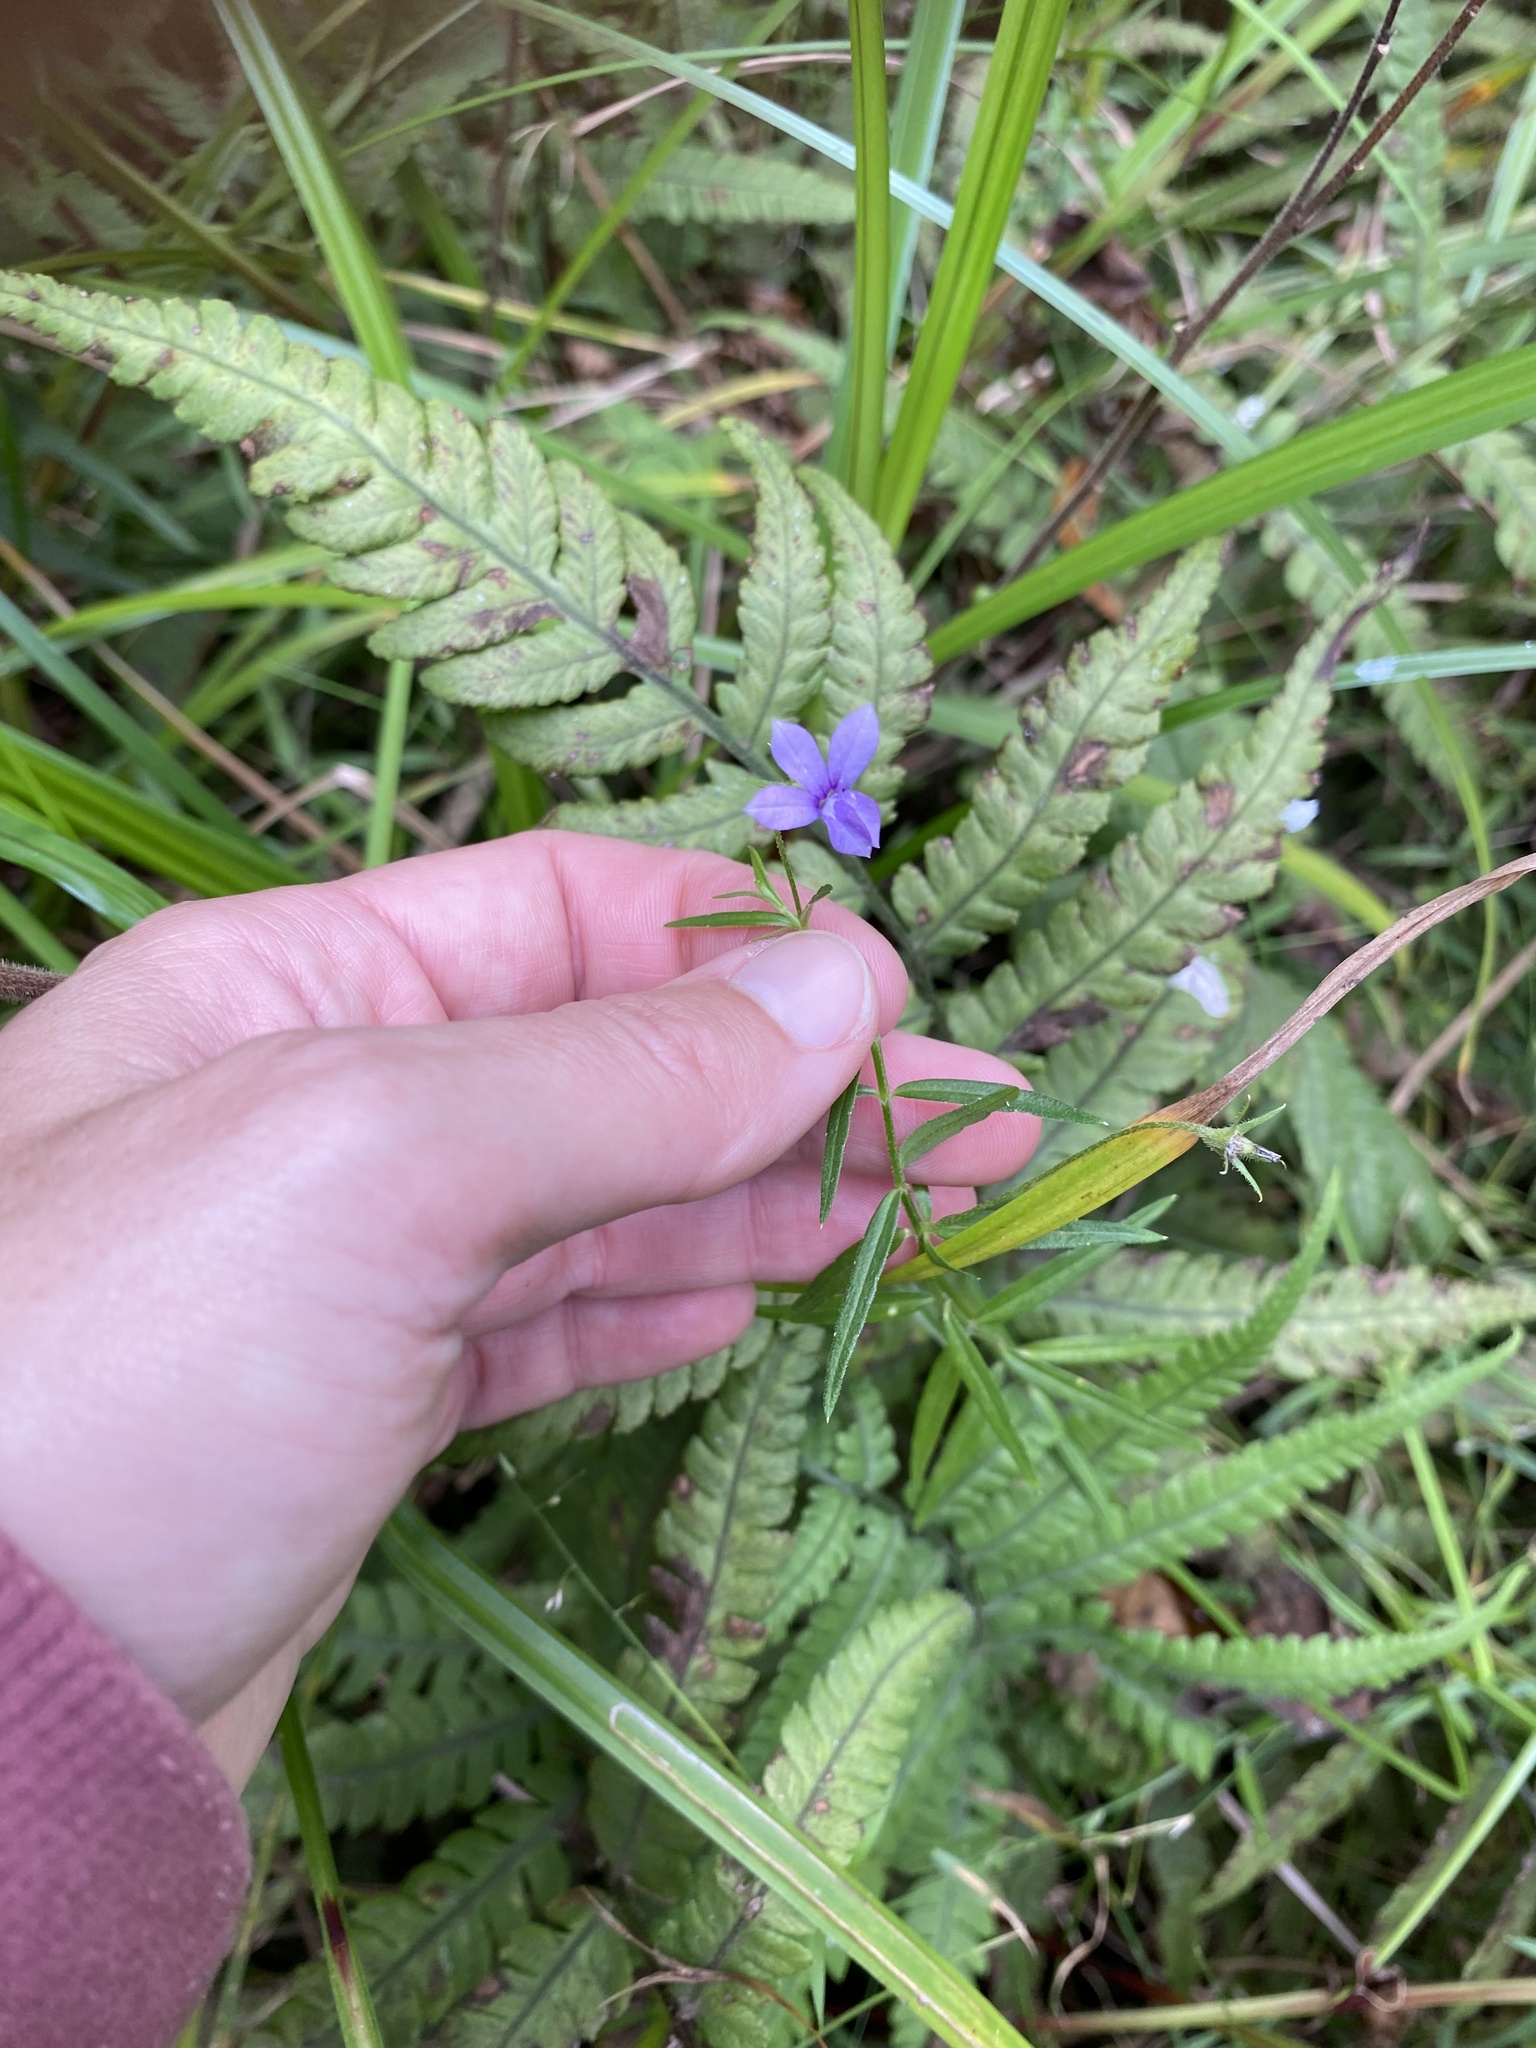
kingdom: Plantae
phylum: Tracheophyta
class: Magnoliopsida
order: Asterales
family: Campanulaceae
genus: Monopsis
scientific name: Monopsis stellarioides
